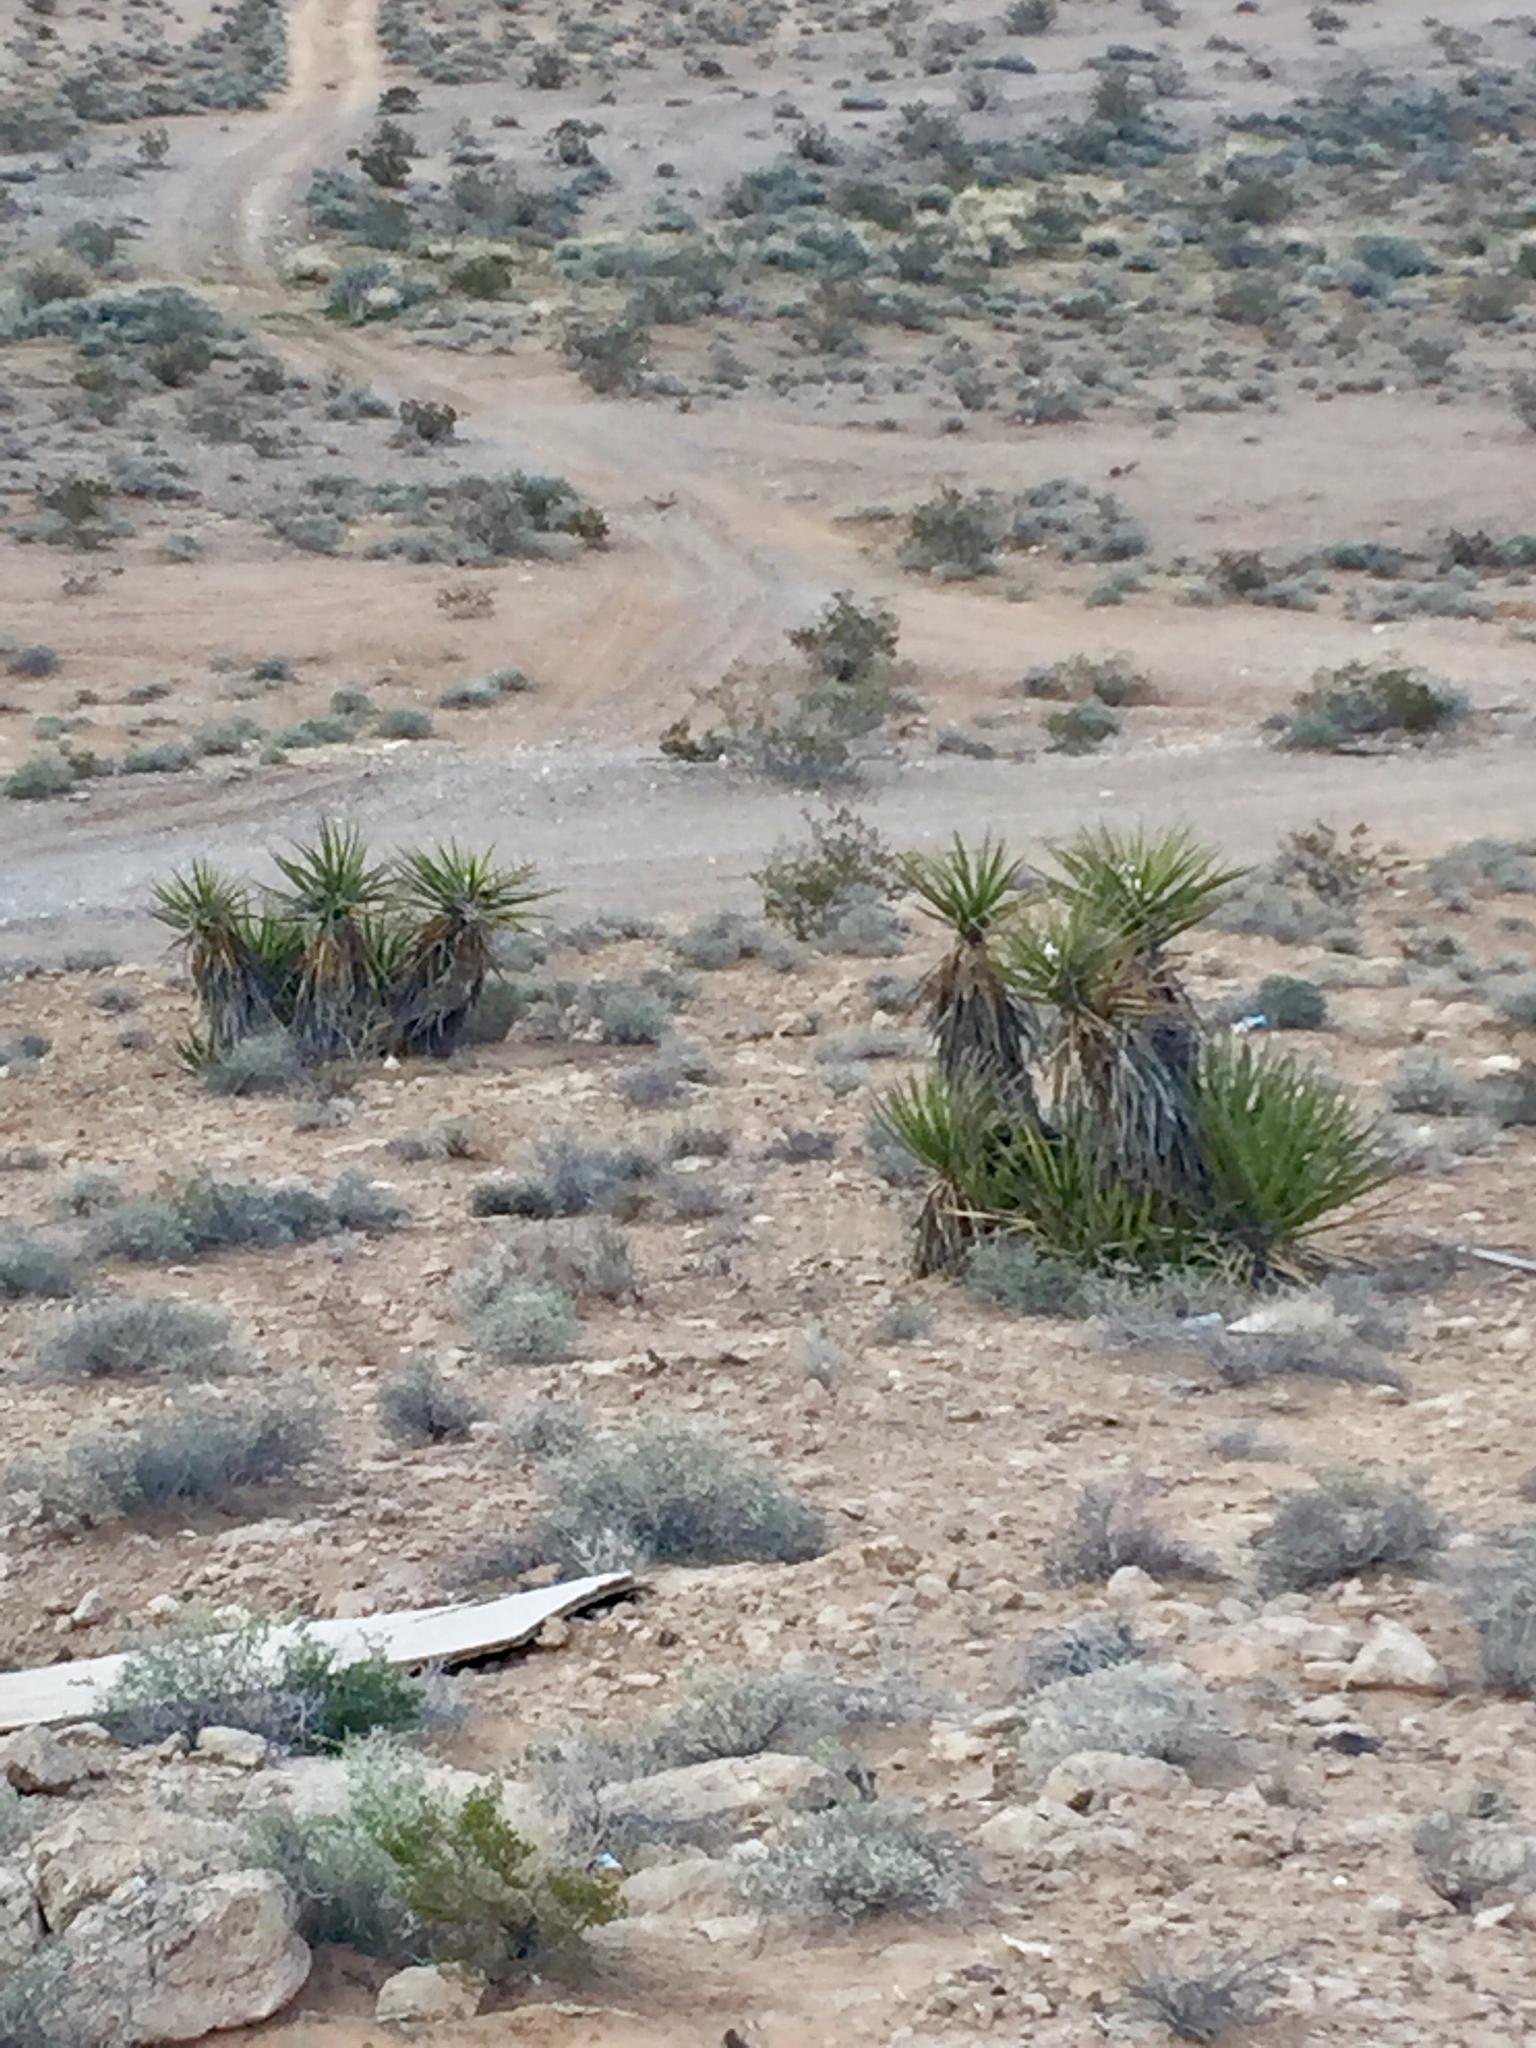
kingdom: Plantae
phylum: Tracheophyta
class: Liliopsida
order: Asparagales
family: Asparagaceae
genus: Yucca
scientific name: Yucca schidigera
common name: Mojave yucca
